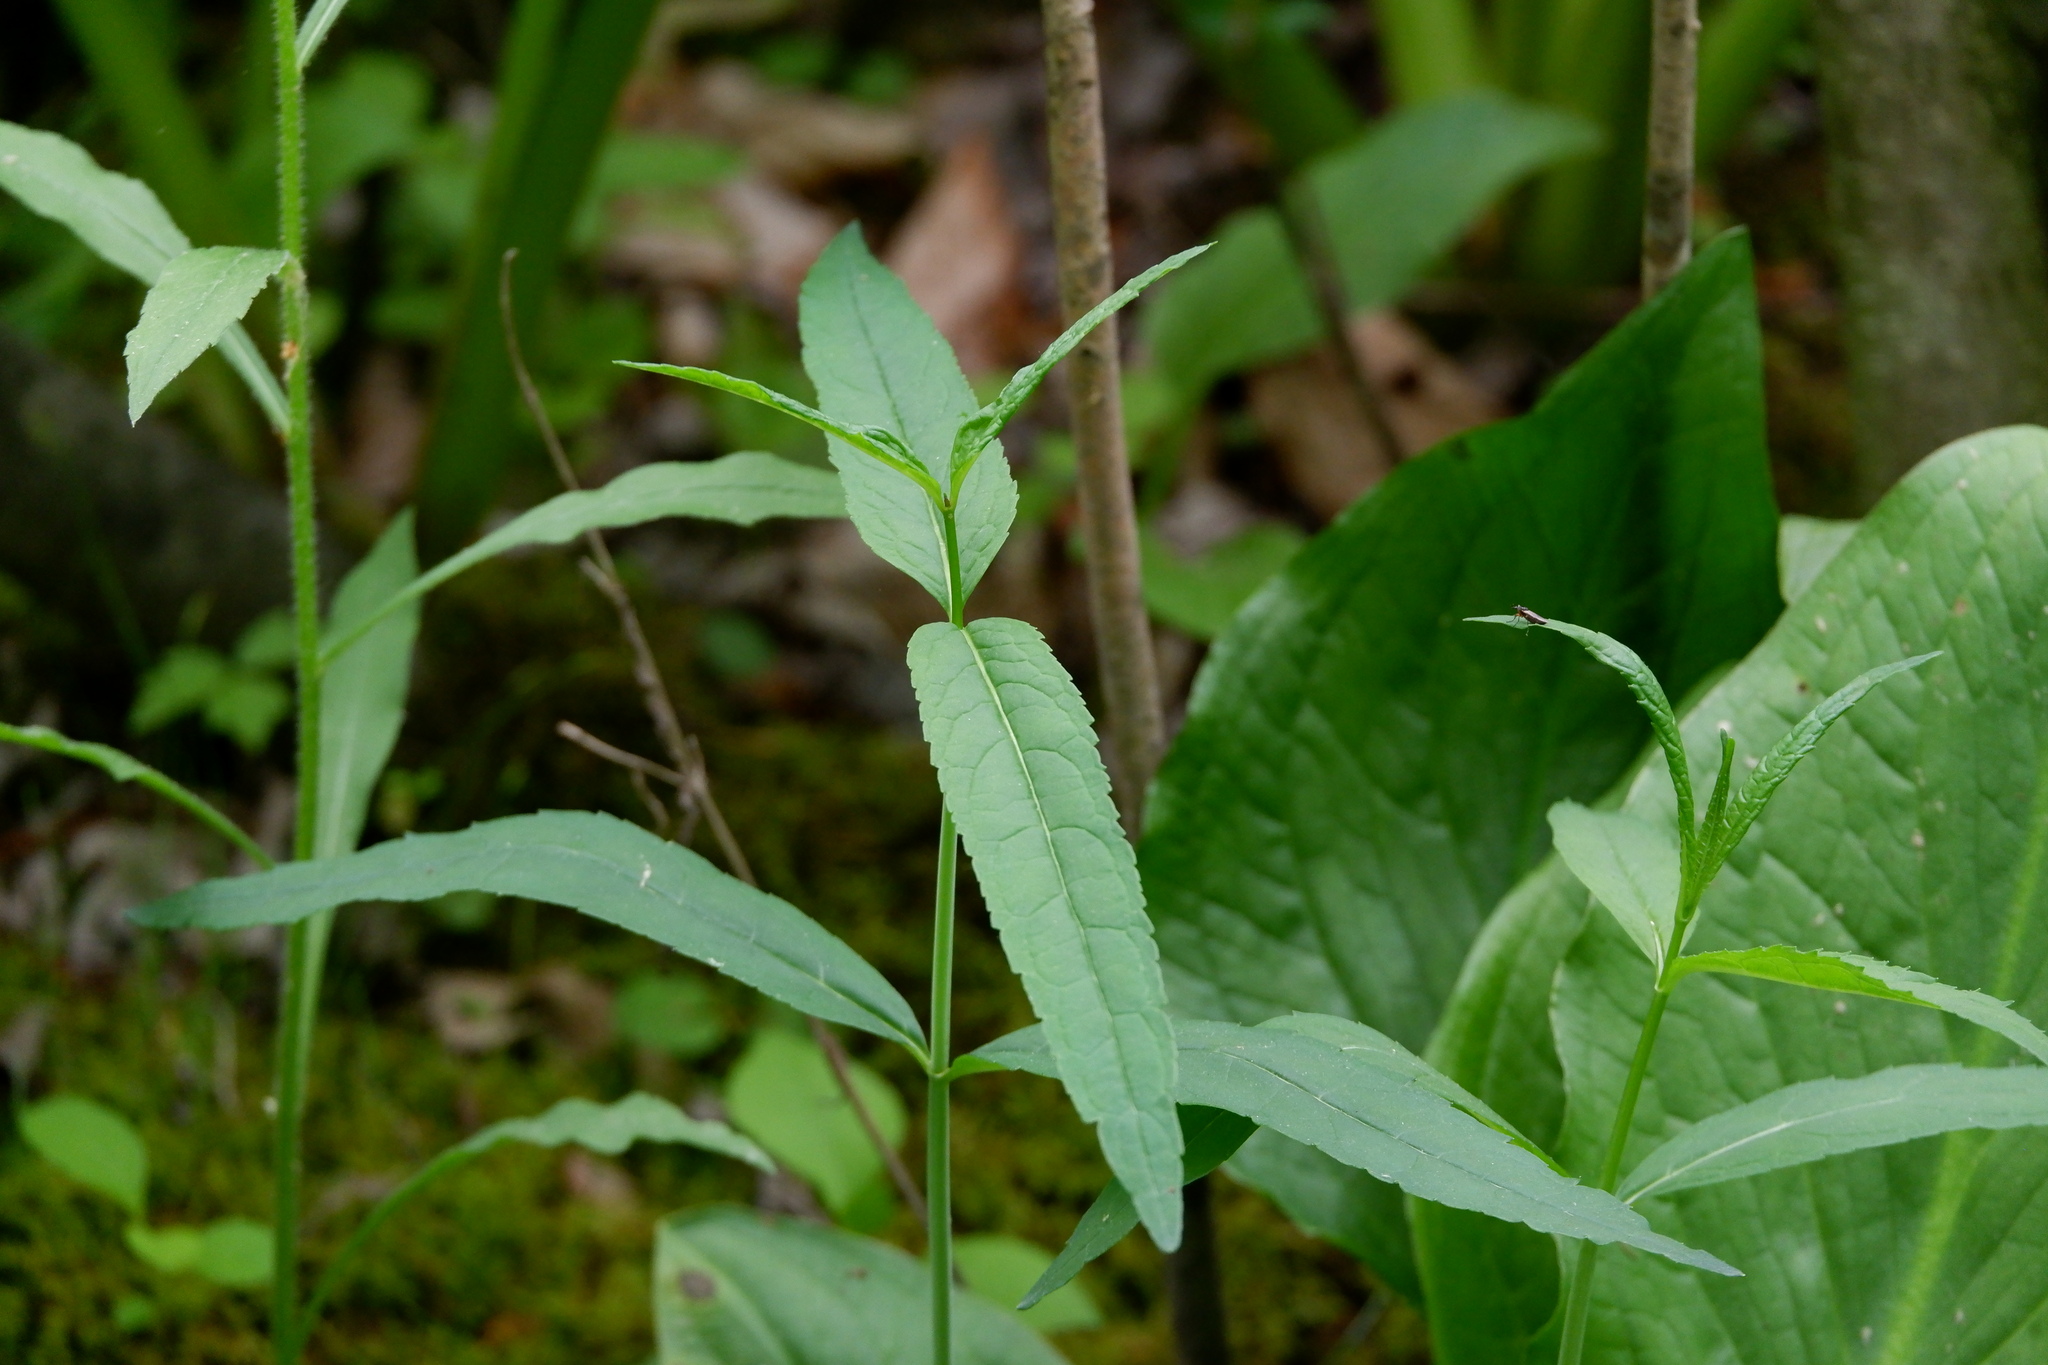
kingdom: Plantae
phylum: Tracheophyta
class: Magnoliopsida
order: Lamiales
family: Plantaginaceae
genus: Chelone
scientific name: Chelone glabra
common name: Snakehead
